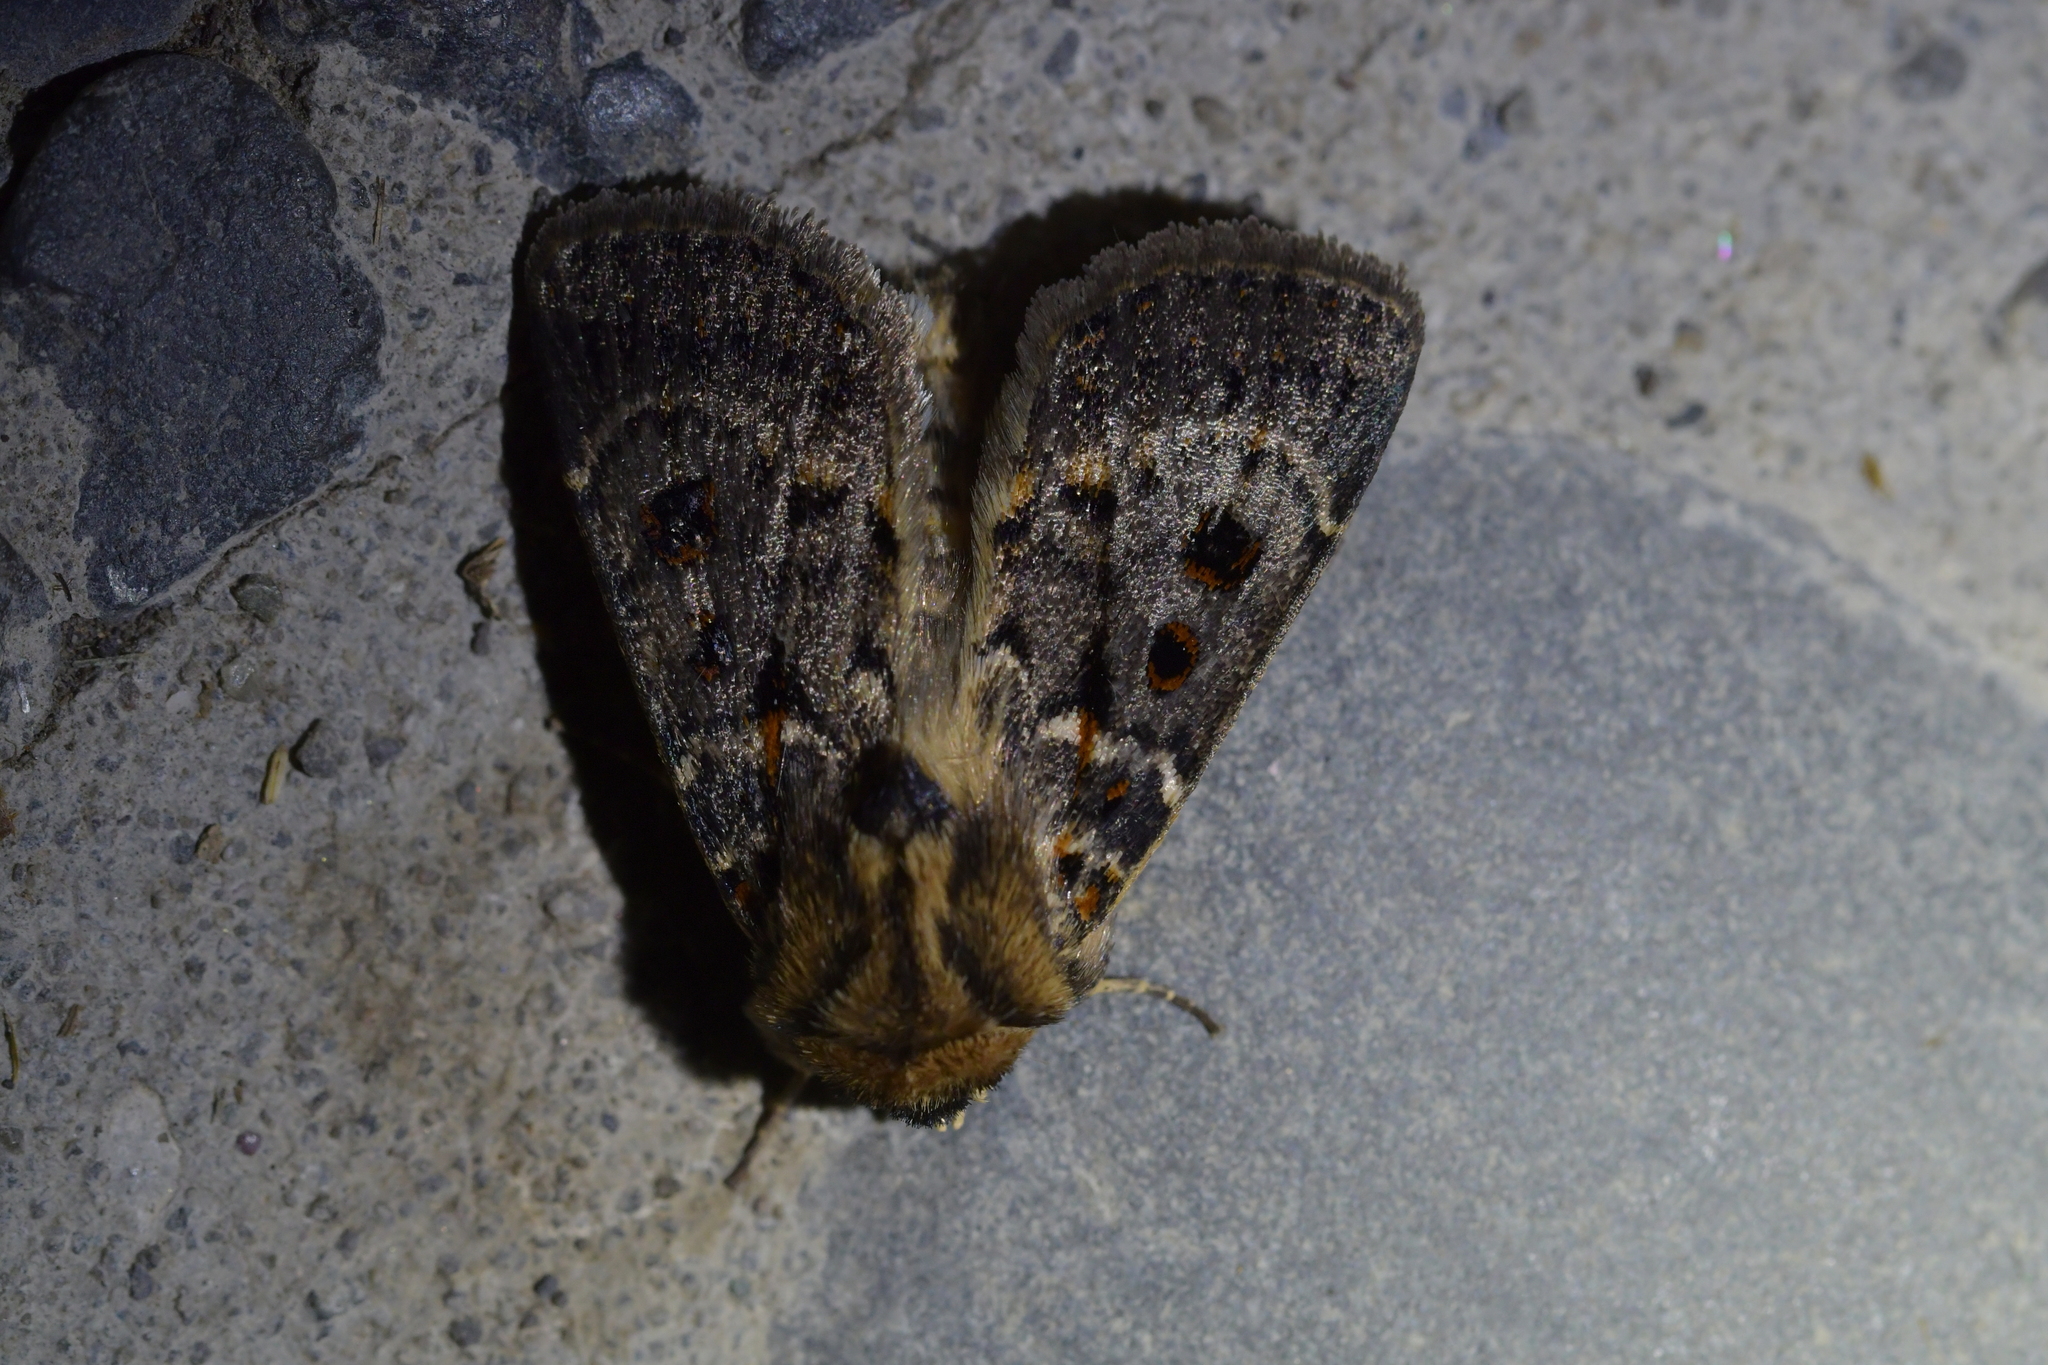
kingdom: Animalia
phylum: Arthropoda
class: Insecta
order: Lepidoptera
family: Noctuidae
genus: Proteuxoa
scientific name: Proteuxoa sanguinipuncta
